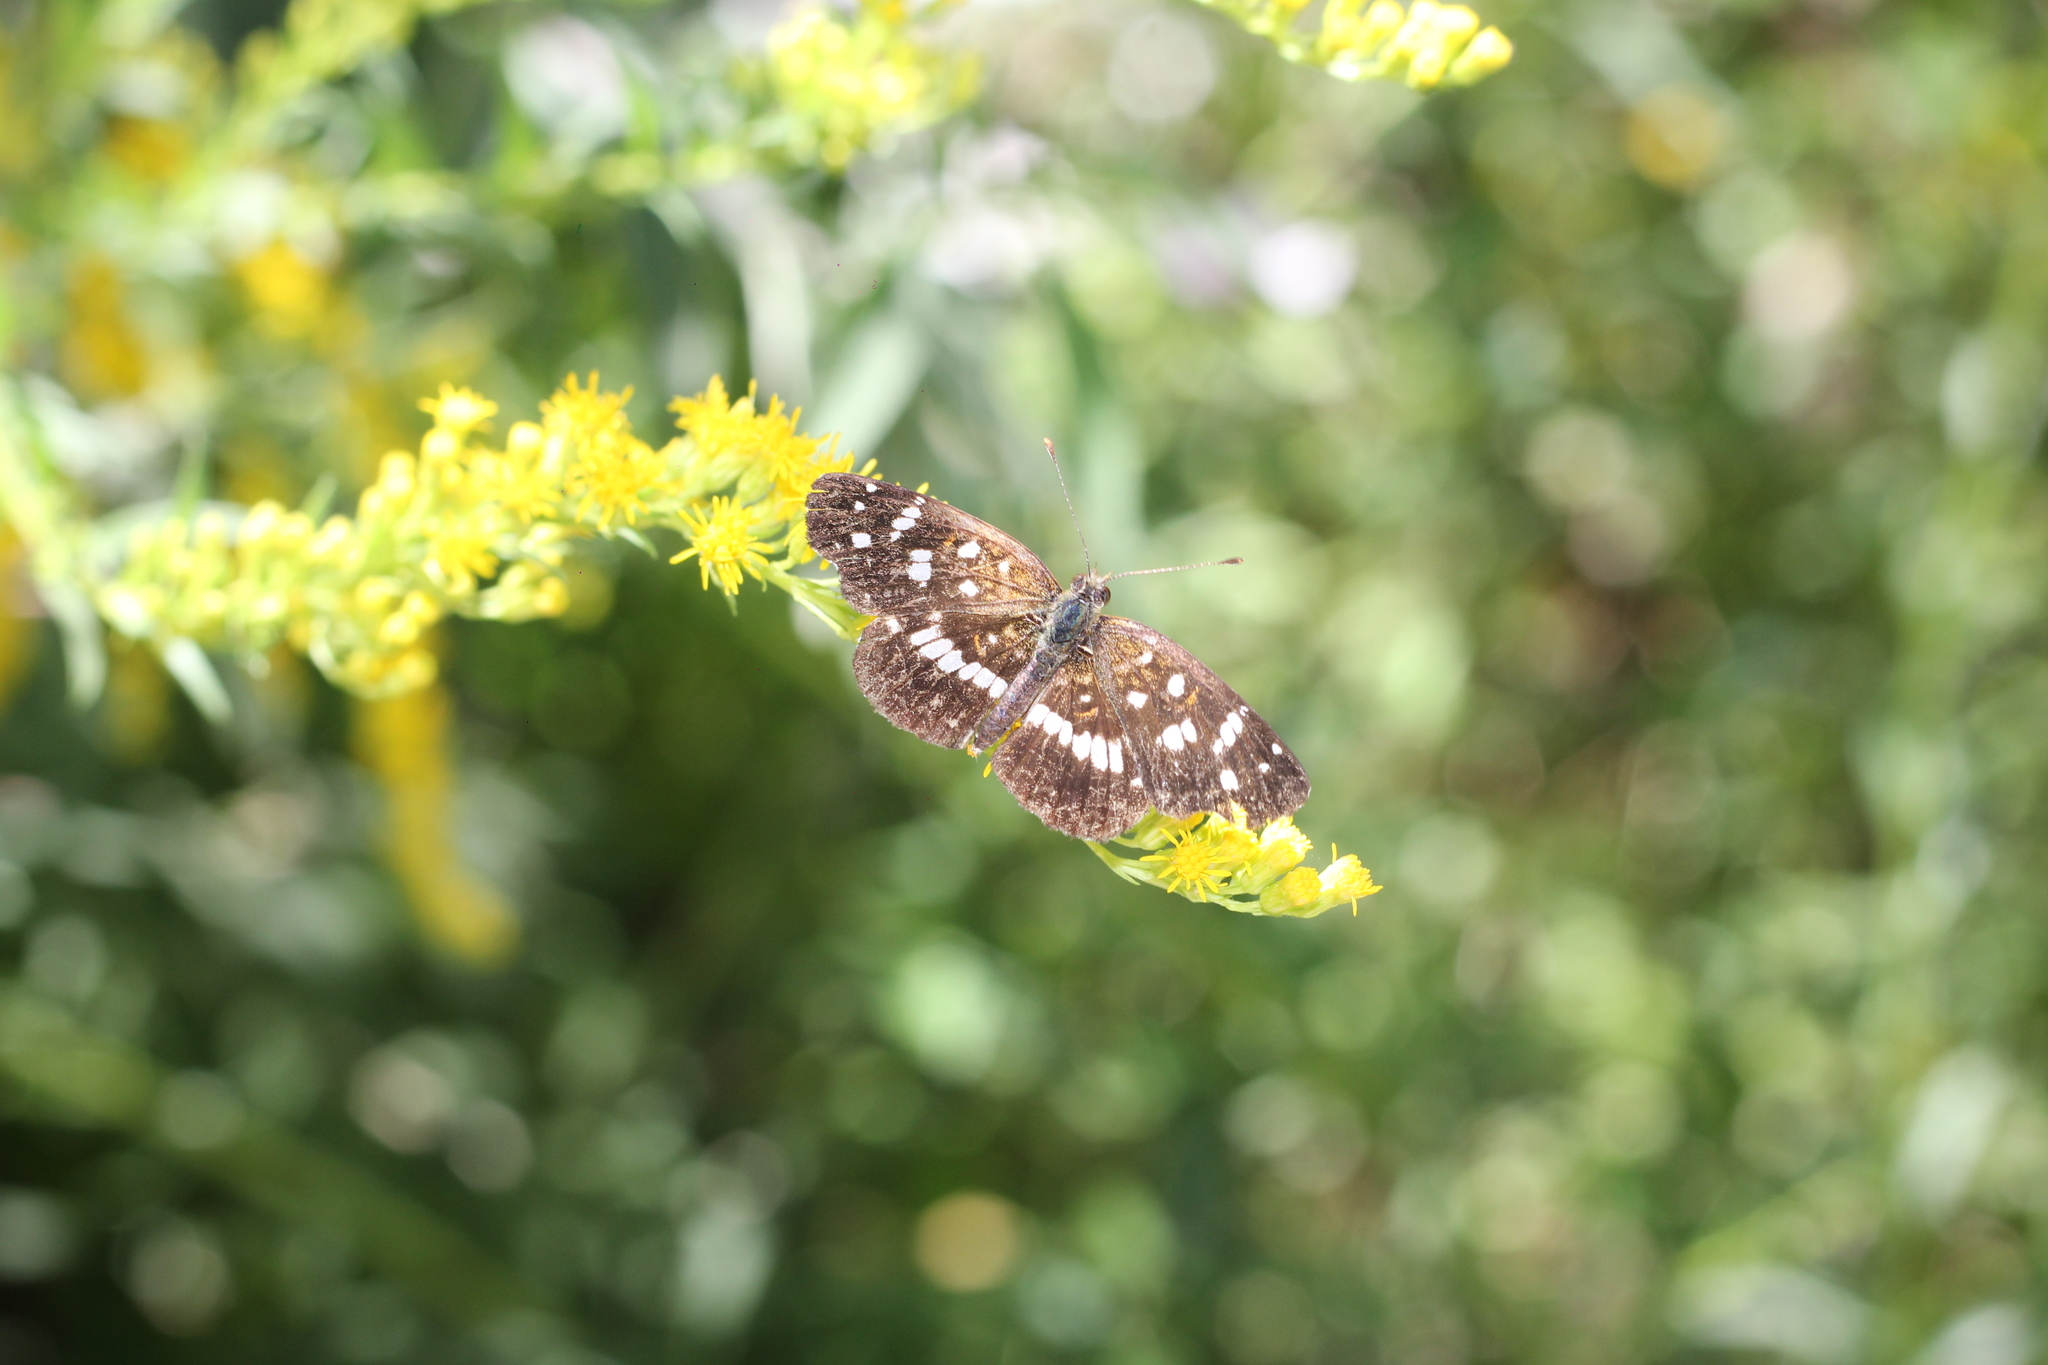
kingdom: Animalia
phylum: Arthropoda
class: Insecta
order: Lepidoptera
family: Nymphalidae
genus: Ortilia
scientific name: Ortilia ithra
